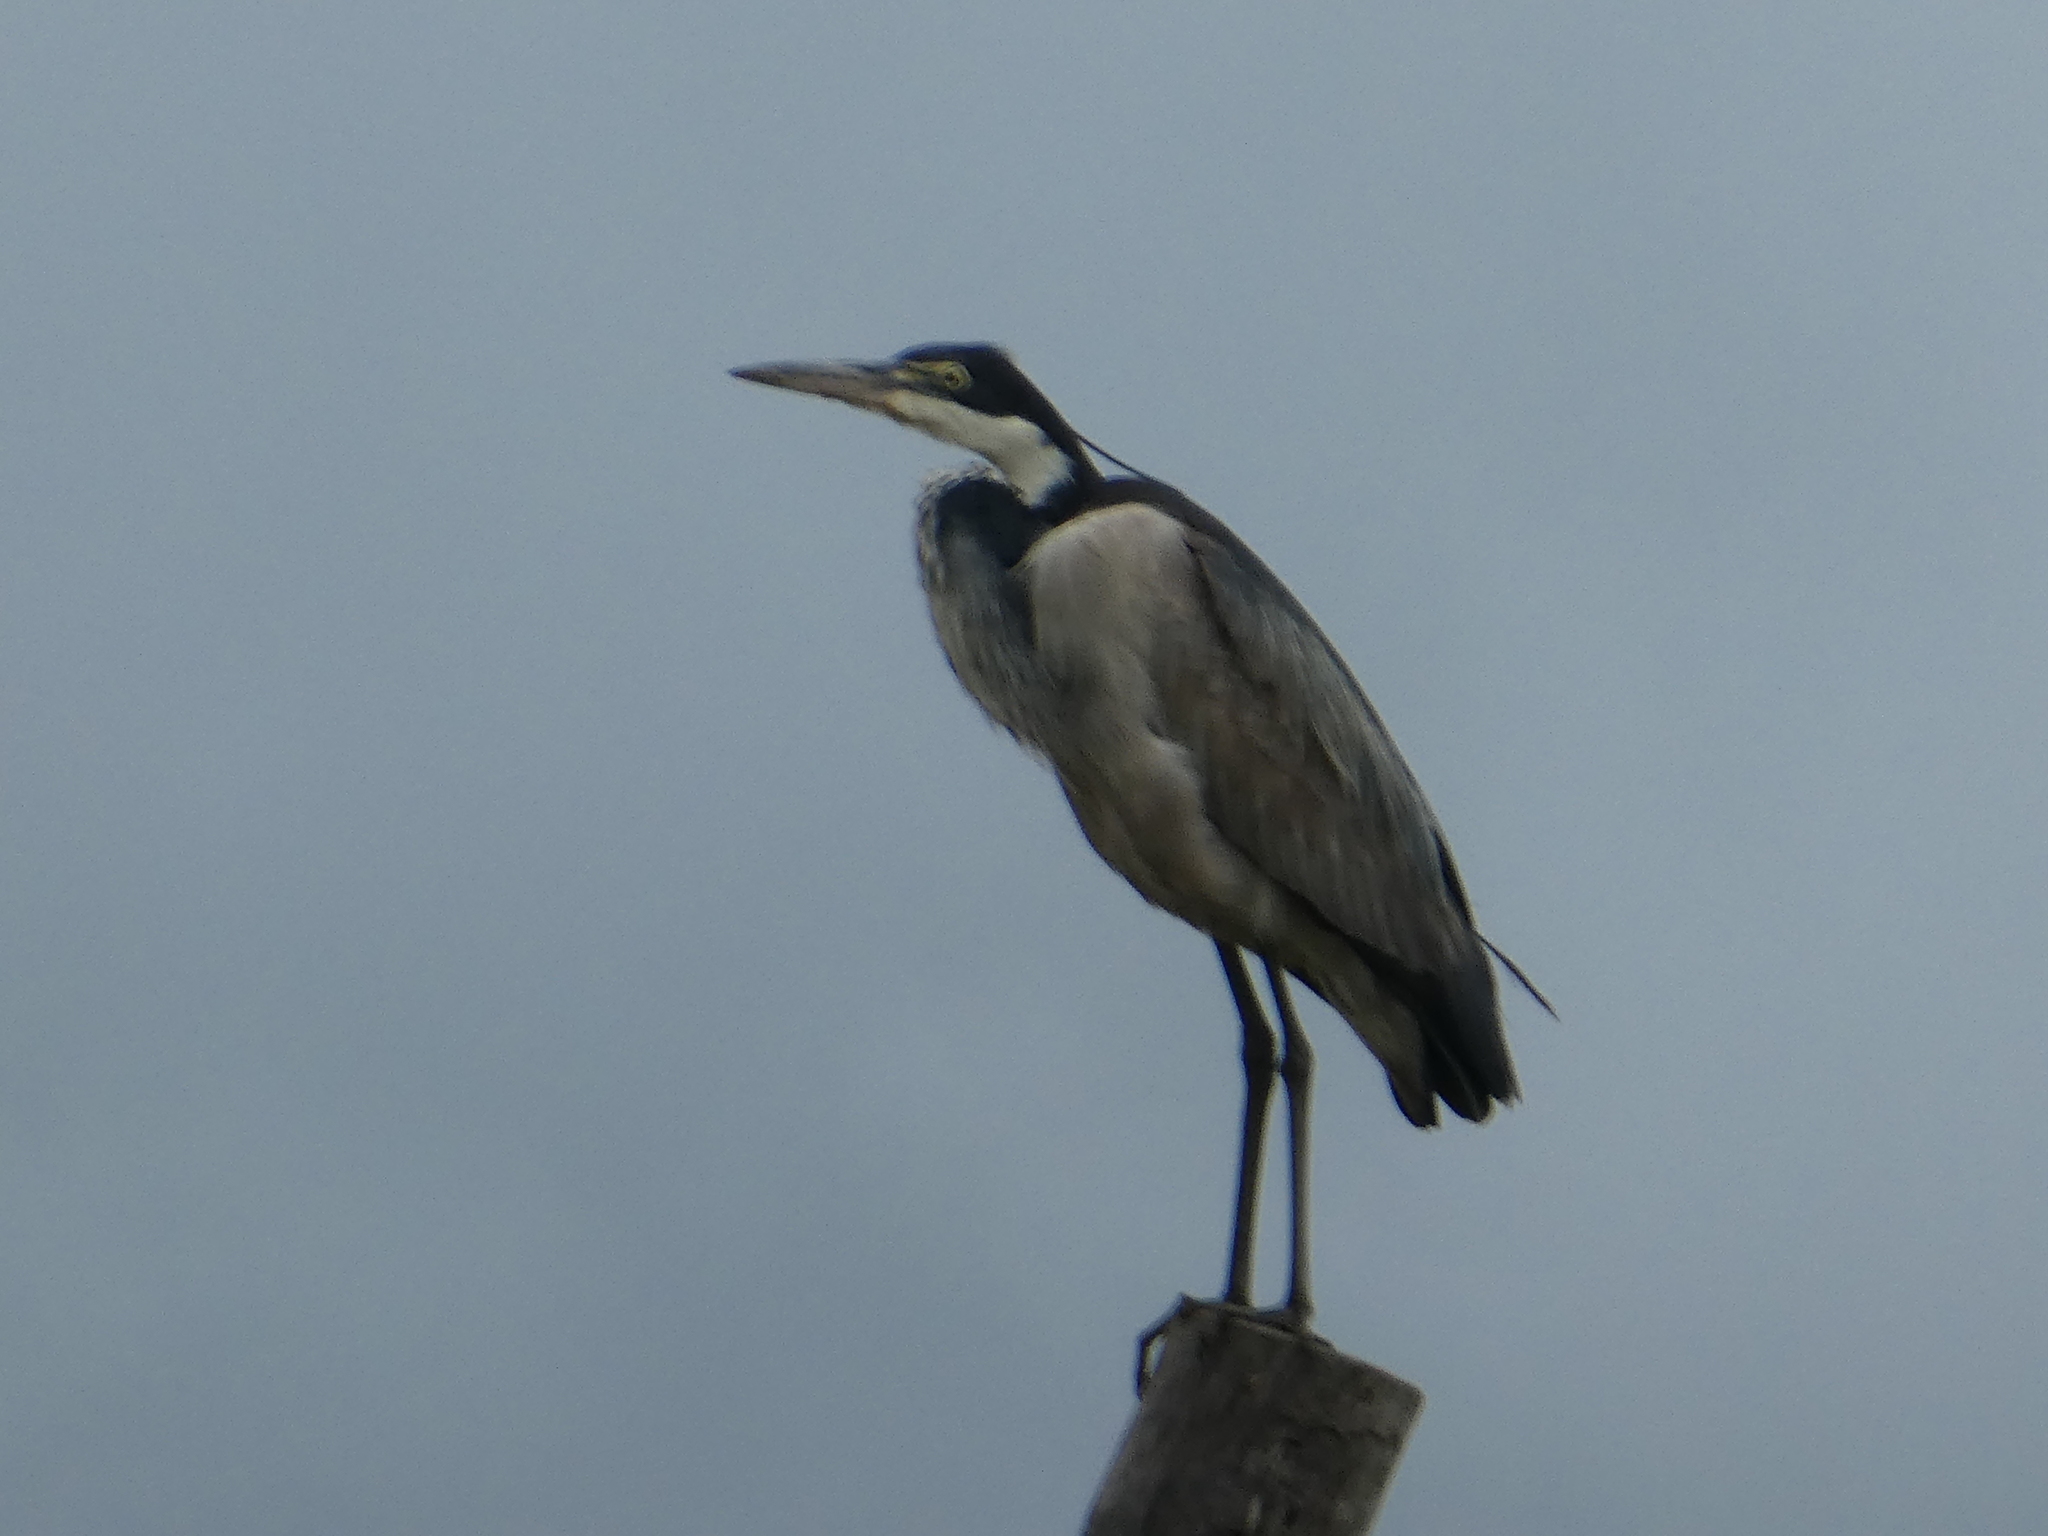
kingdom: Animalia
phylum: Chordata
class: Aves
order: Pelecaniformes
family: Ardeidae
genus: Ardea
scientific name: Ardea melanocephala
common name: Black-headed heron
